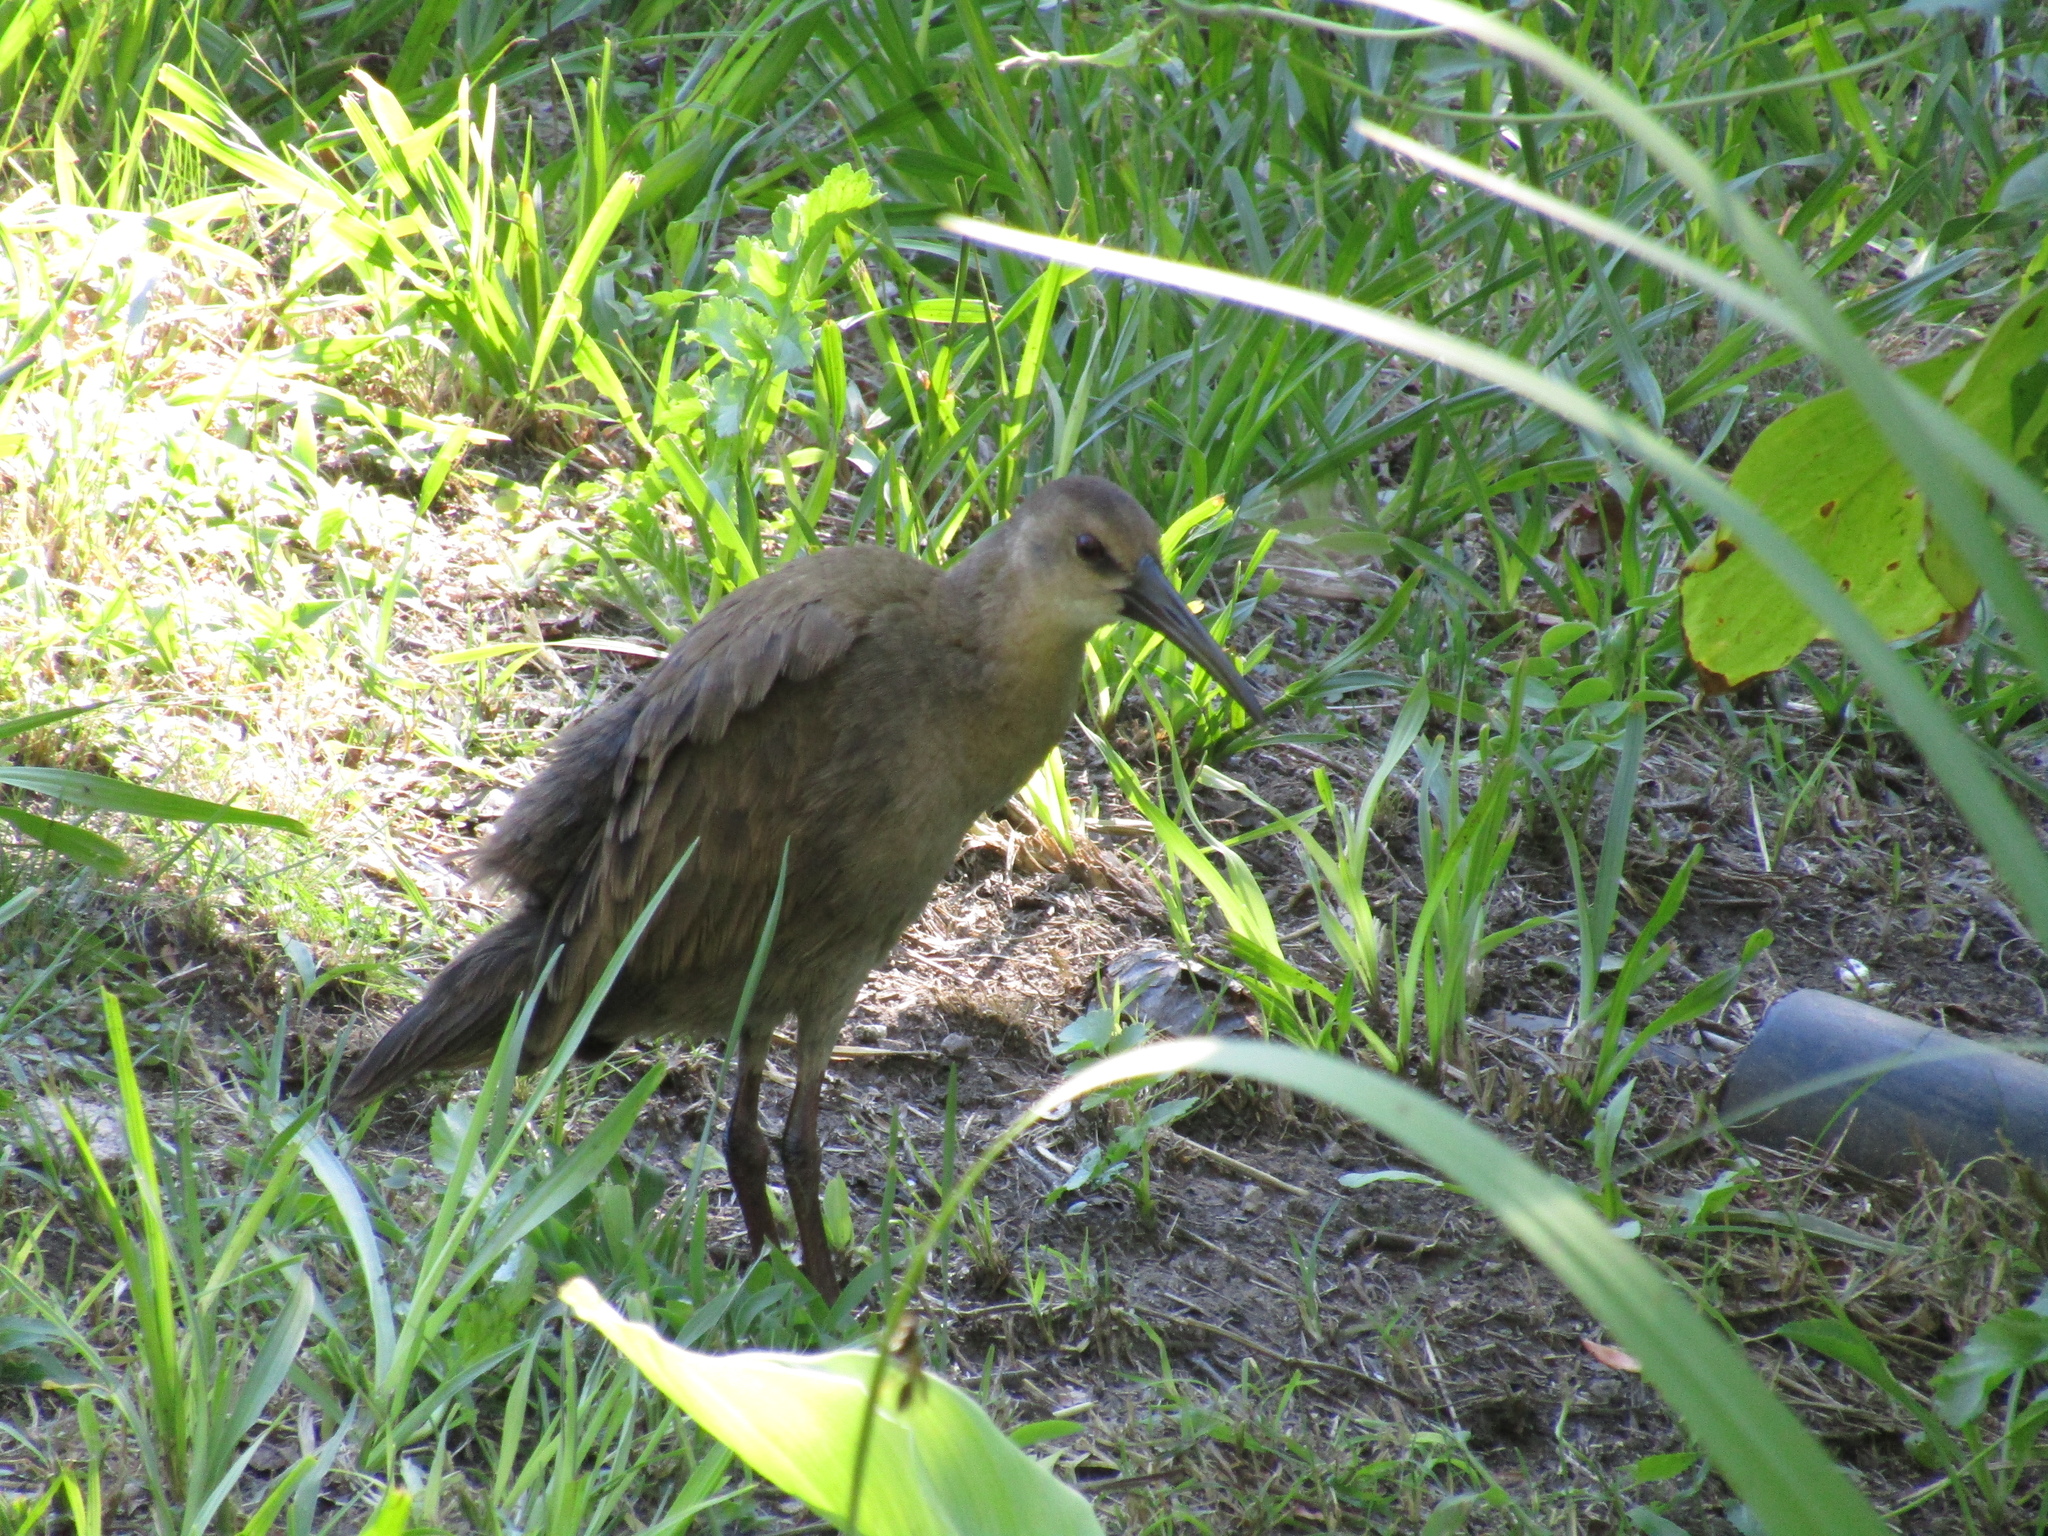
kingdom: Animalia
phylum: Chordata
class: Aves
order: Gruiformes
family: Rallidae
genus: Pardirallus
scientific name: Pardirallus sanguinolentus
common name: Plumbeous rail
